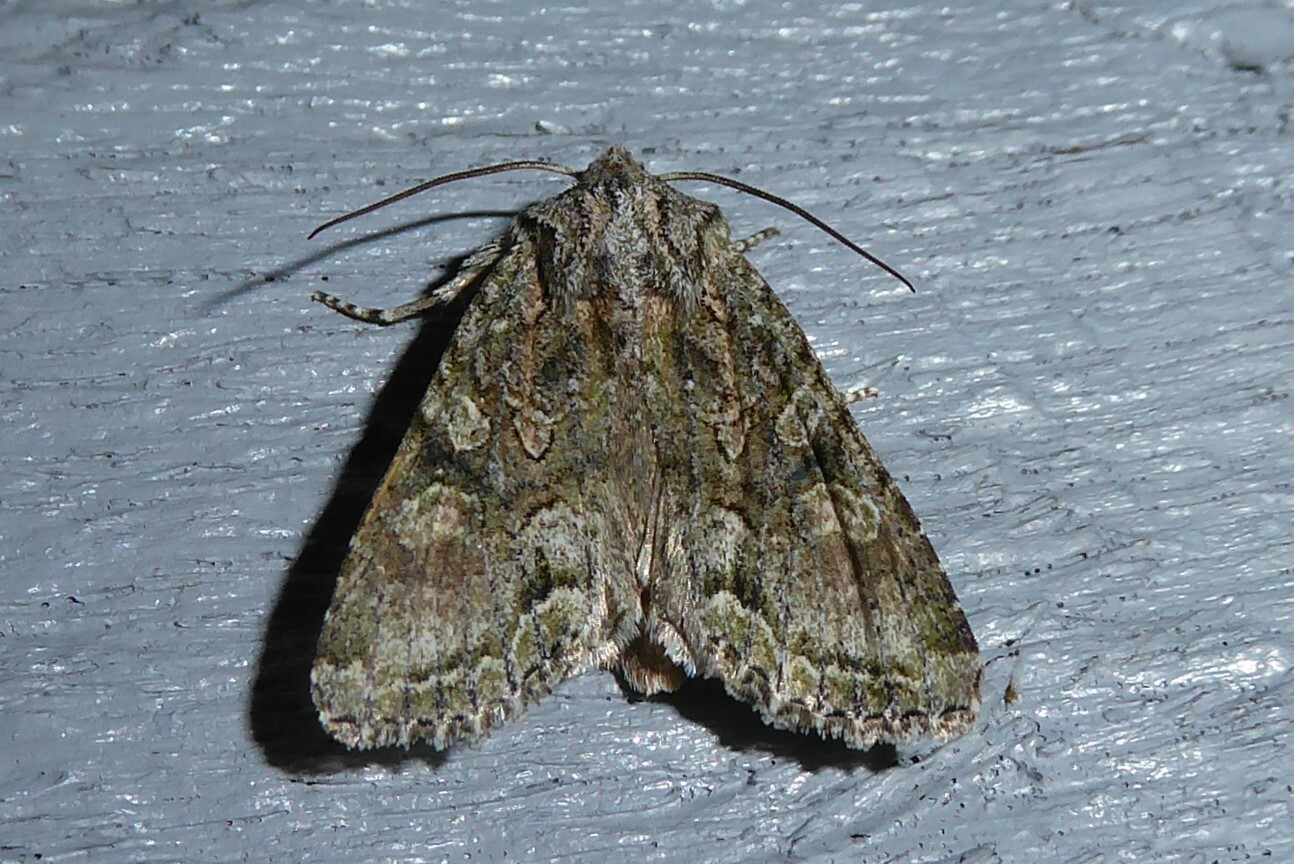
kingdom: Animalia
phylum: Arthropoda
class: Insecta
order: Lepidoptera
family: Noctuidae
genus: Ichneutica
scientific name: Ichneutica mutans
